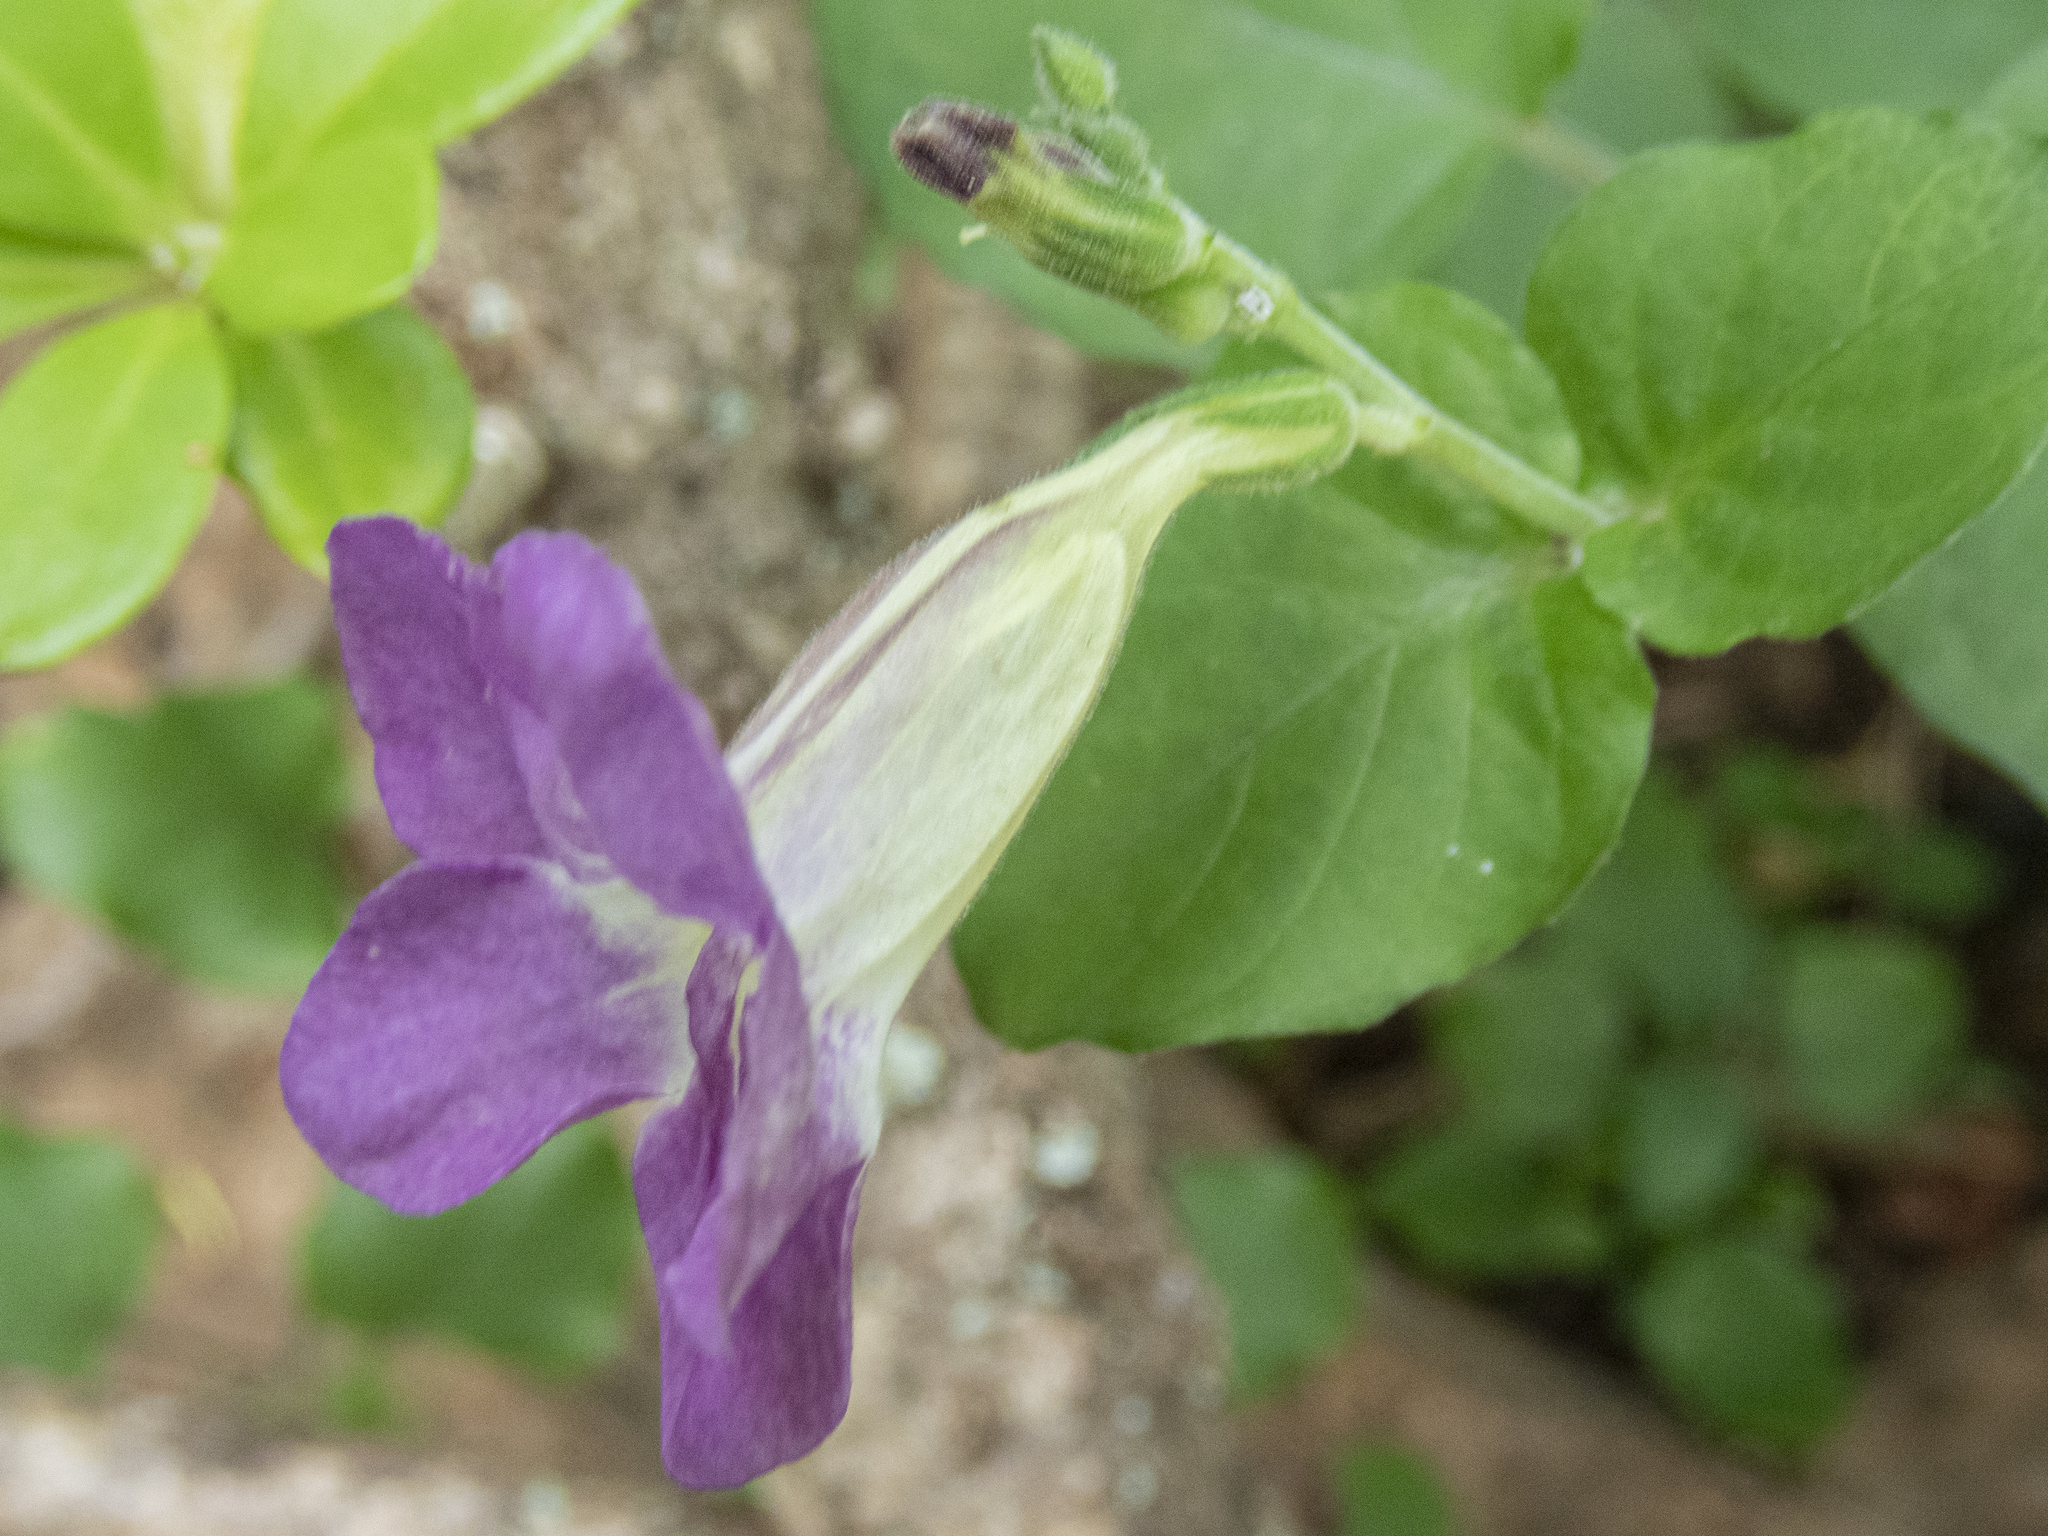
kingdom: Plantae
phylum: Tracheophyta
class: Magnoliopsida
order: Lamiales
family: Acanthaceae
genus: Asystasia
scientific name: Asystasia gangetica
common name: Chinese violet
